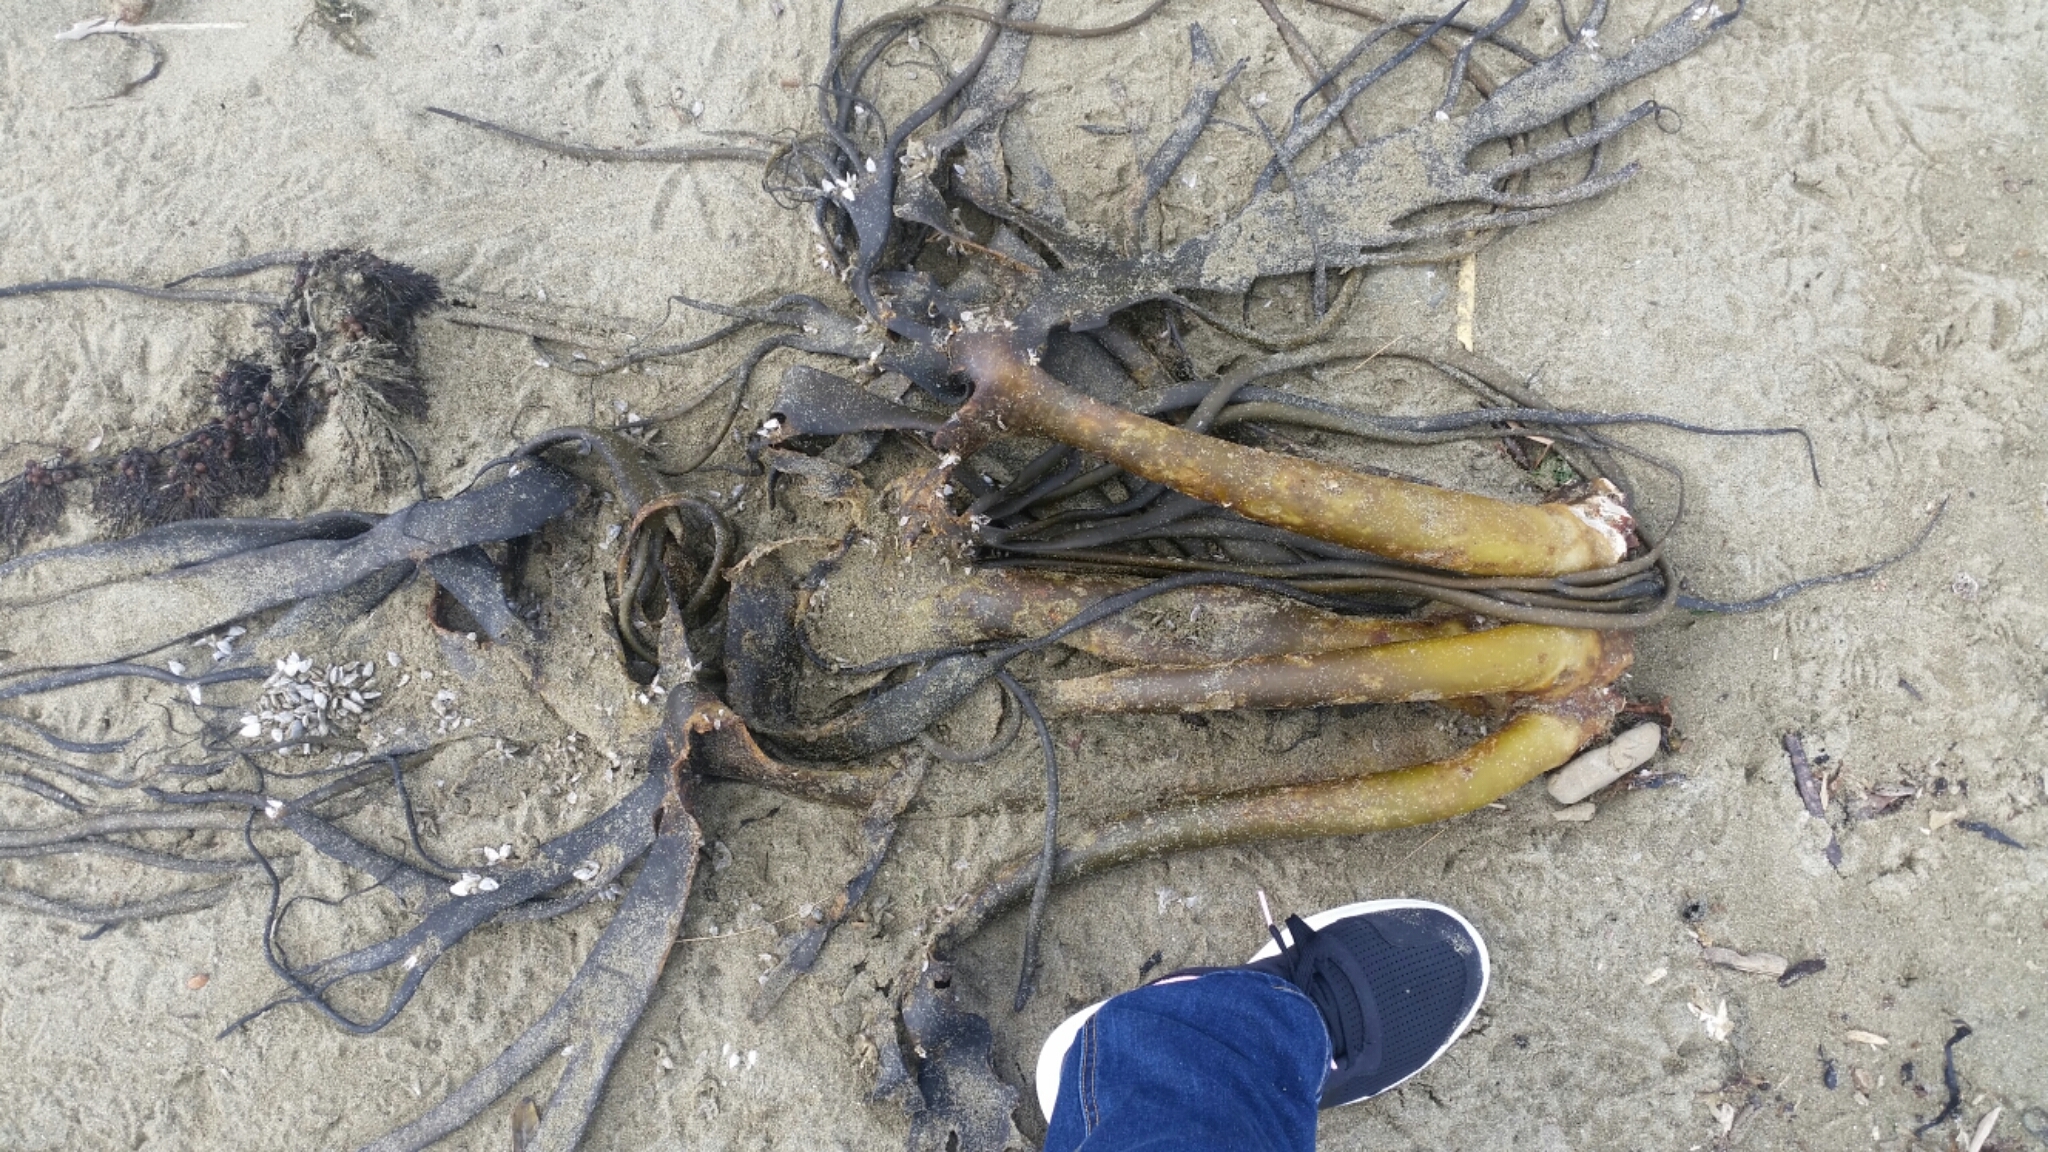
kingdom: Chromista
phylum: Ochrophyta
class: Phaeophyceae
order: Fucales
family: Durvillaeaceae
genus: Durvillaea
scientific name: Durvillaea antarctica
